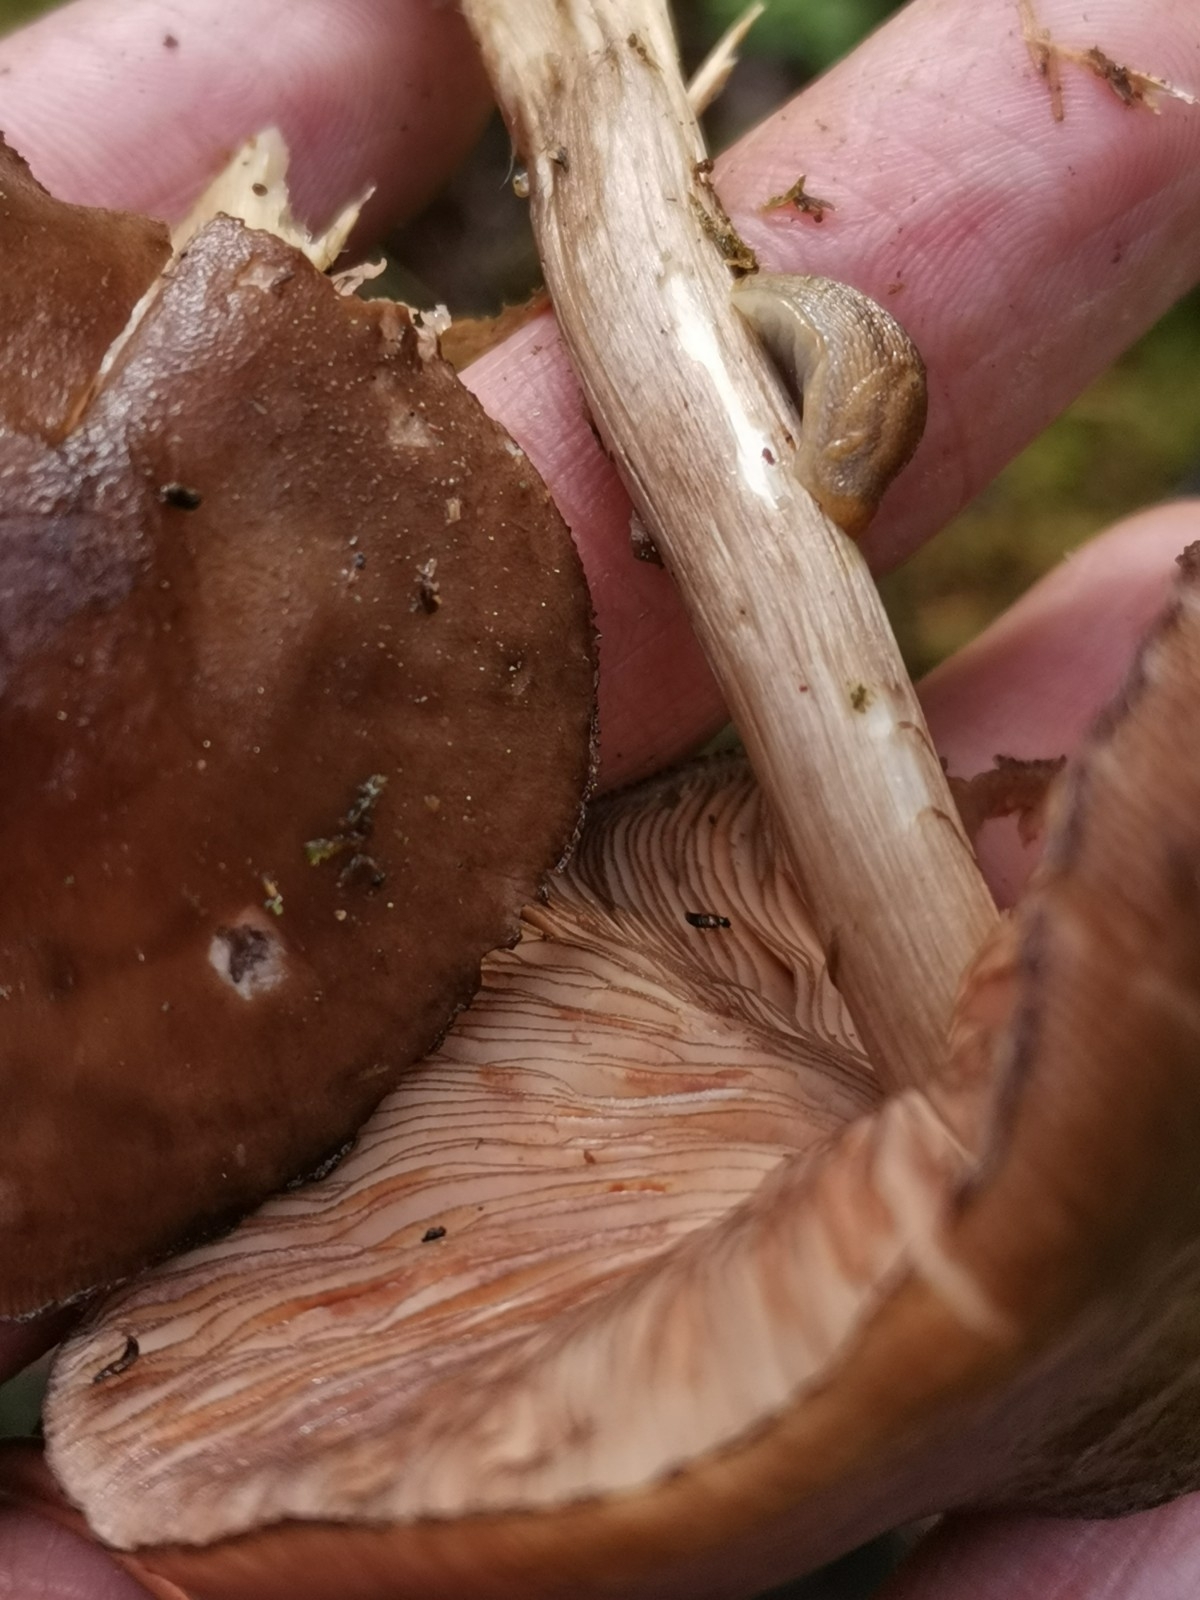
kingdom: Fungi
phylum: Basidiomycota
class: Agaricomycetes
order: Agaricales
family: Pluteaceae
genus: Pluteus
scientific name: Pluteus atromarginatus
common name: Blackedged shield
